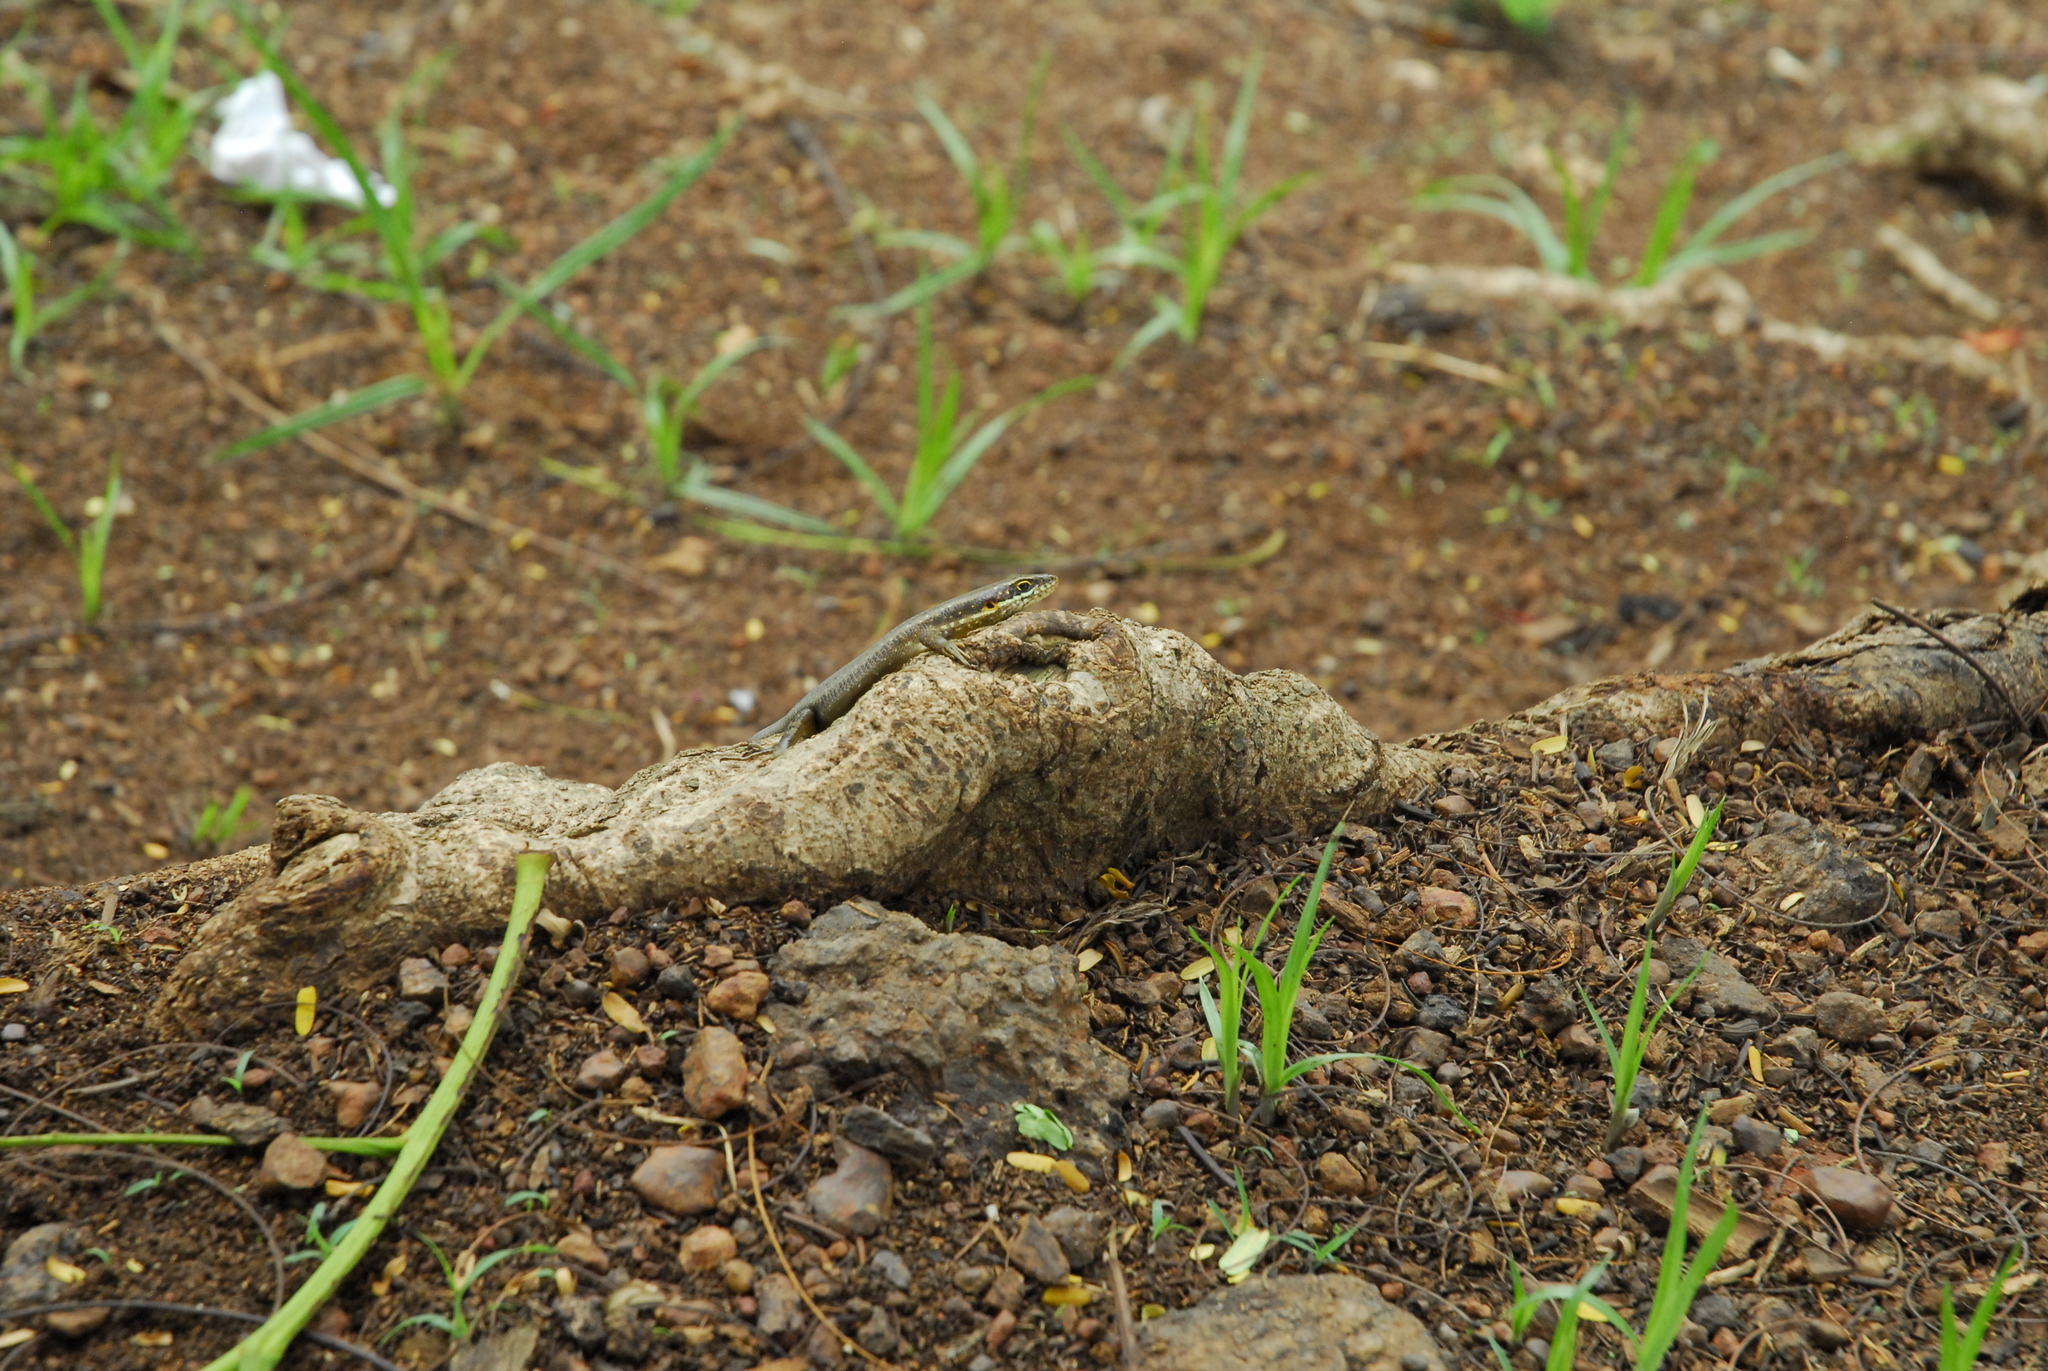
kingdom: Animalia
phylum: Chordata
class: Squamata
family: Scincidae
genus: Trachylepis
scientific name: Trachylepis maculilabris
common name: Speckle-lipped mabuya
